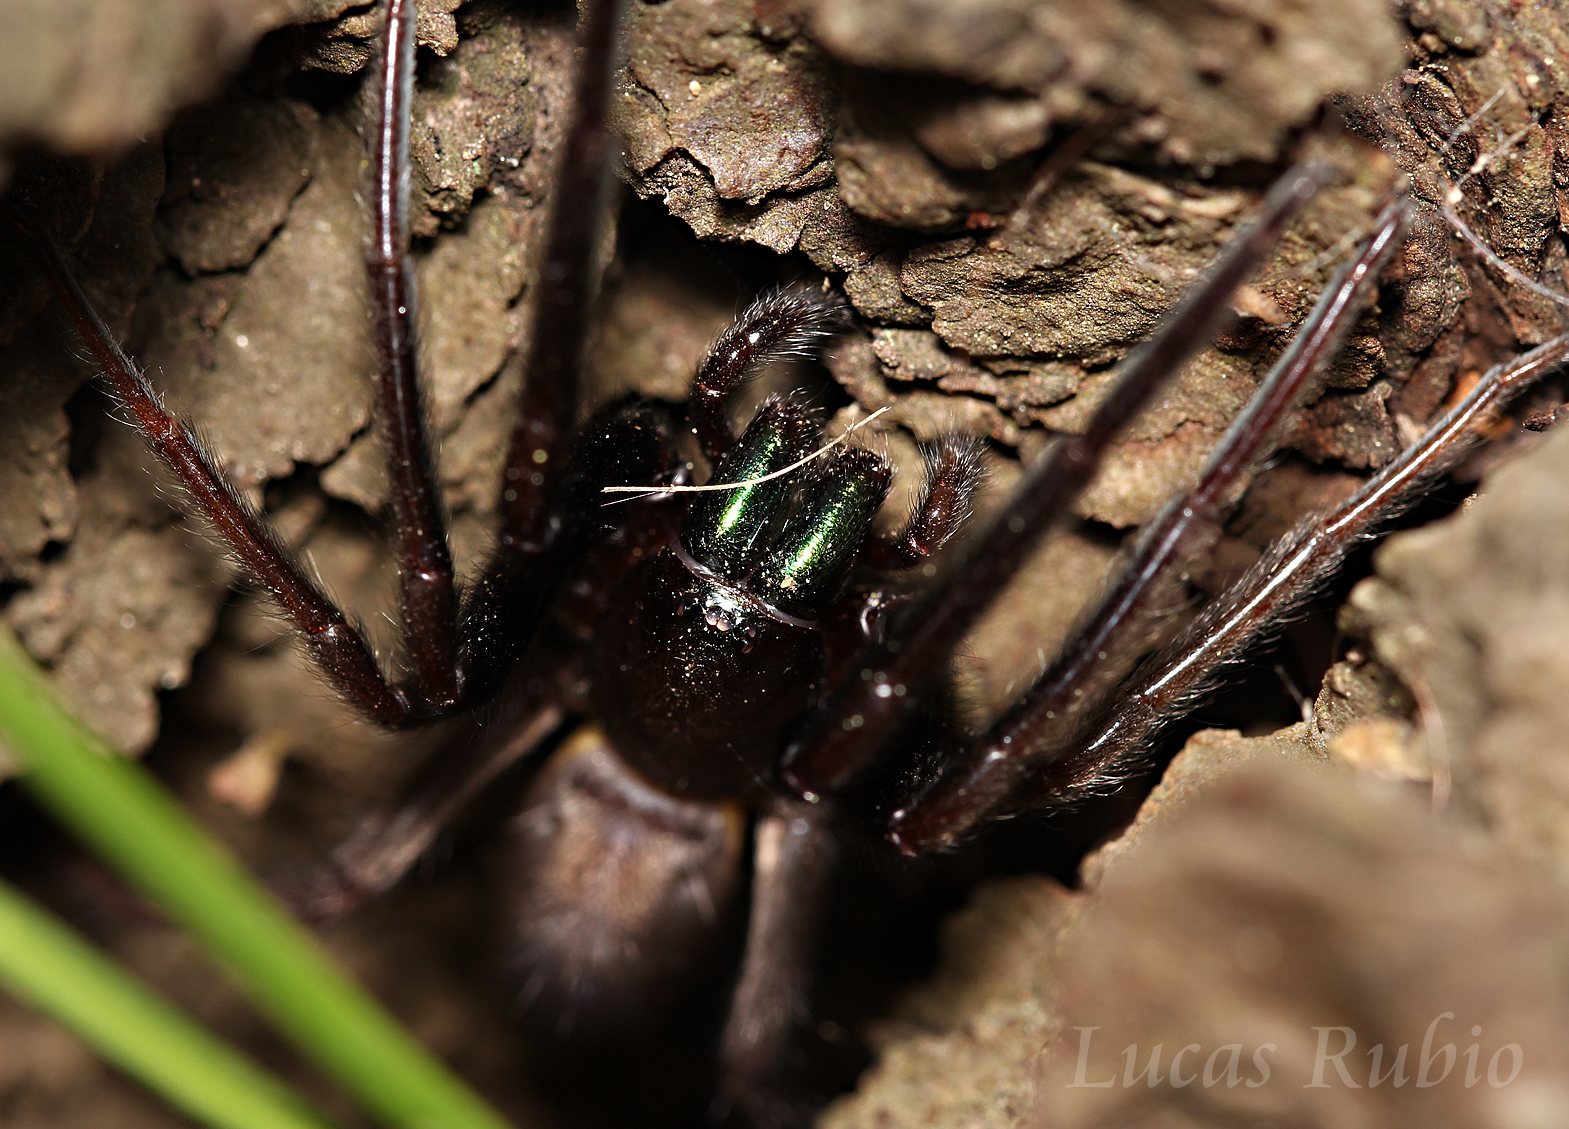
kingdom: Animalia
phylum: Arthropoda
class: Arachnida
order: Araneae
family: Segestriidae
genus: Segestria
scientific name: Segestria florentina
